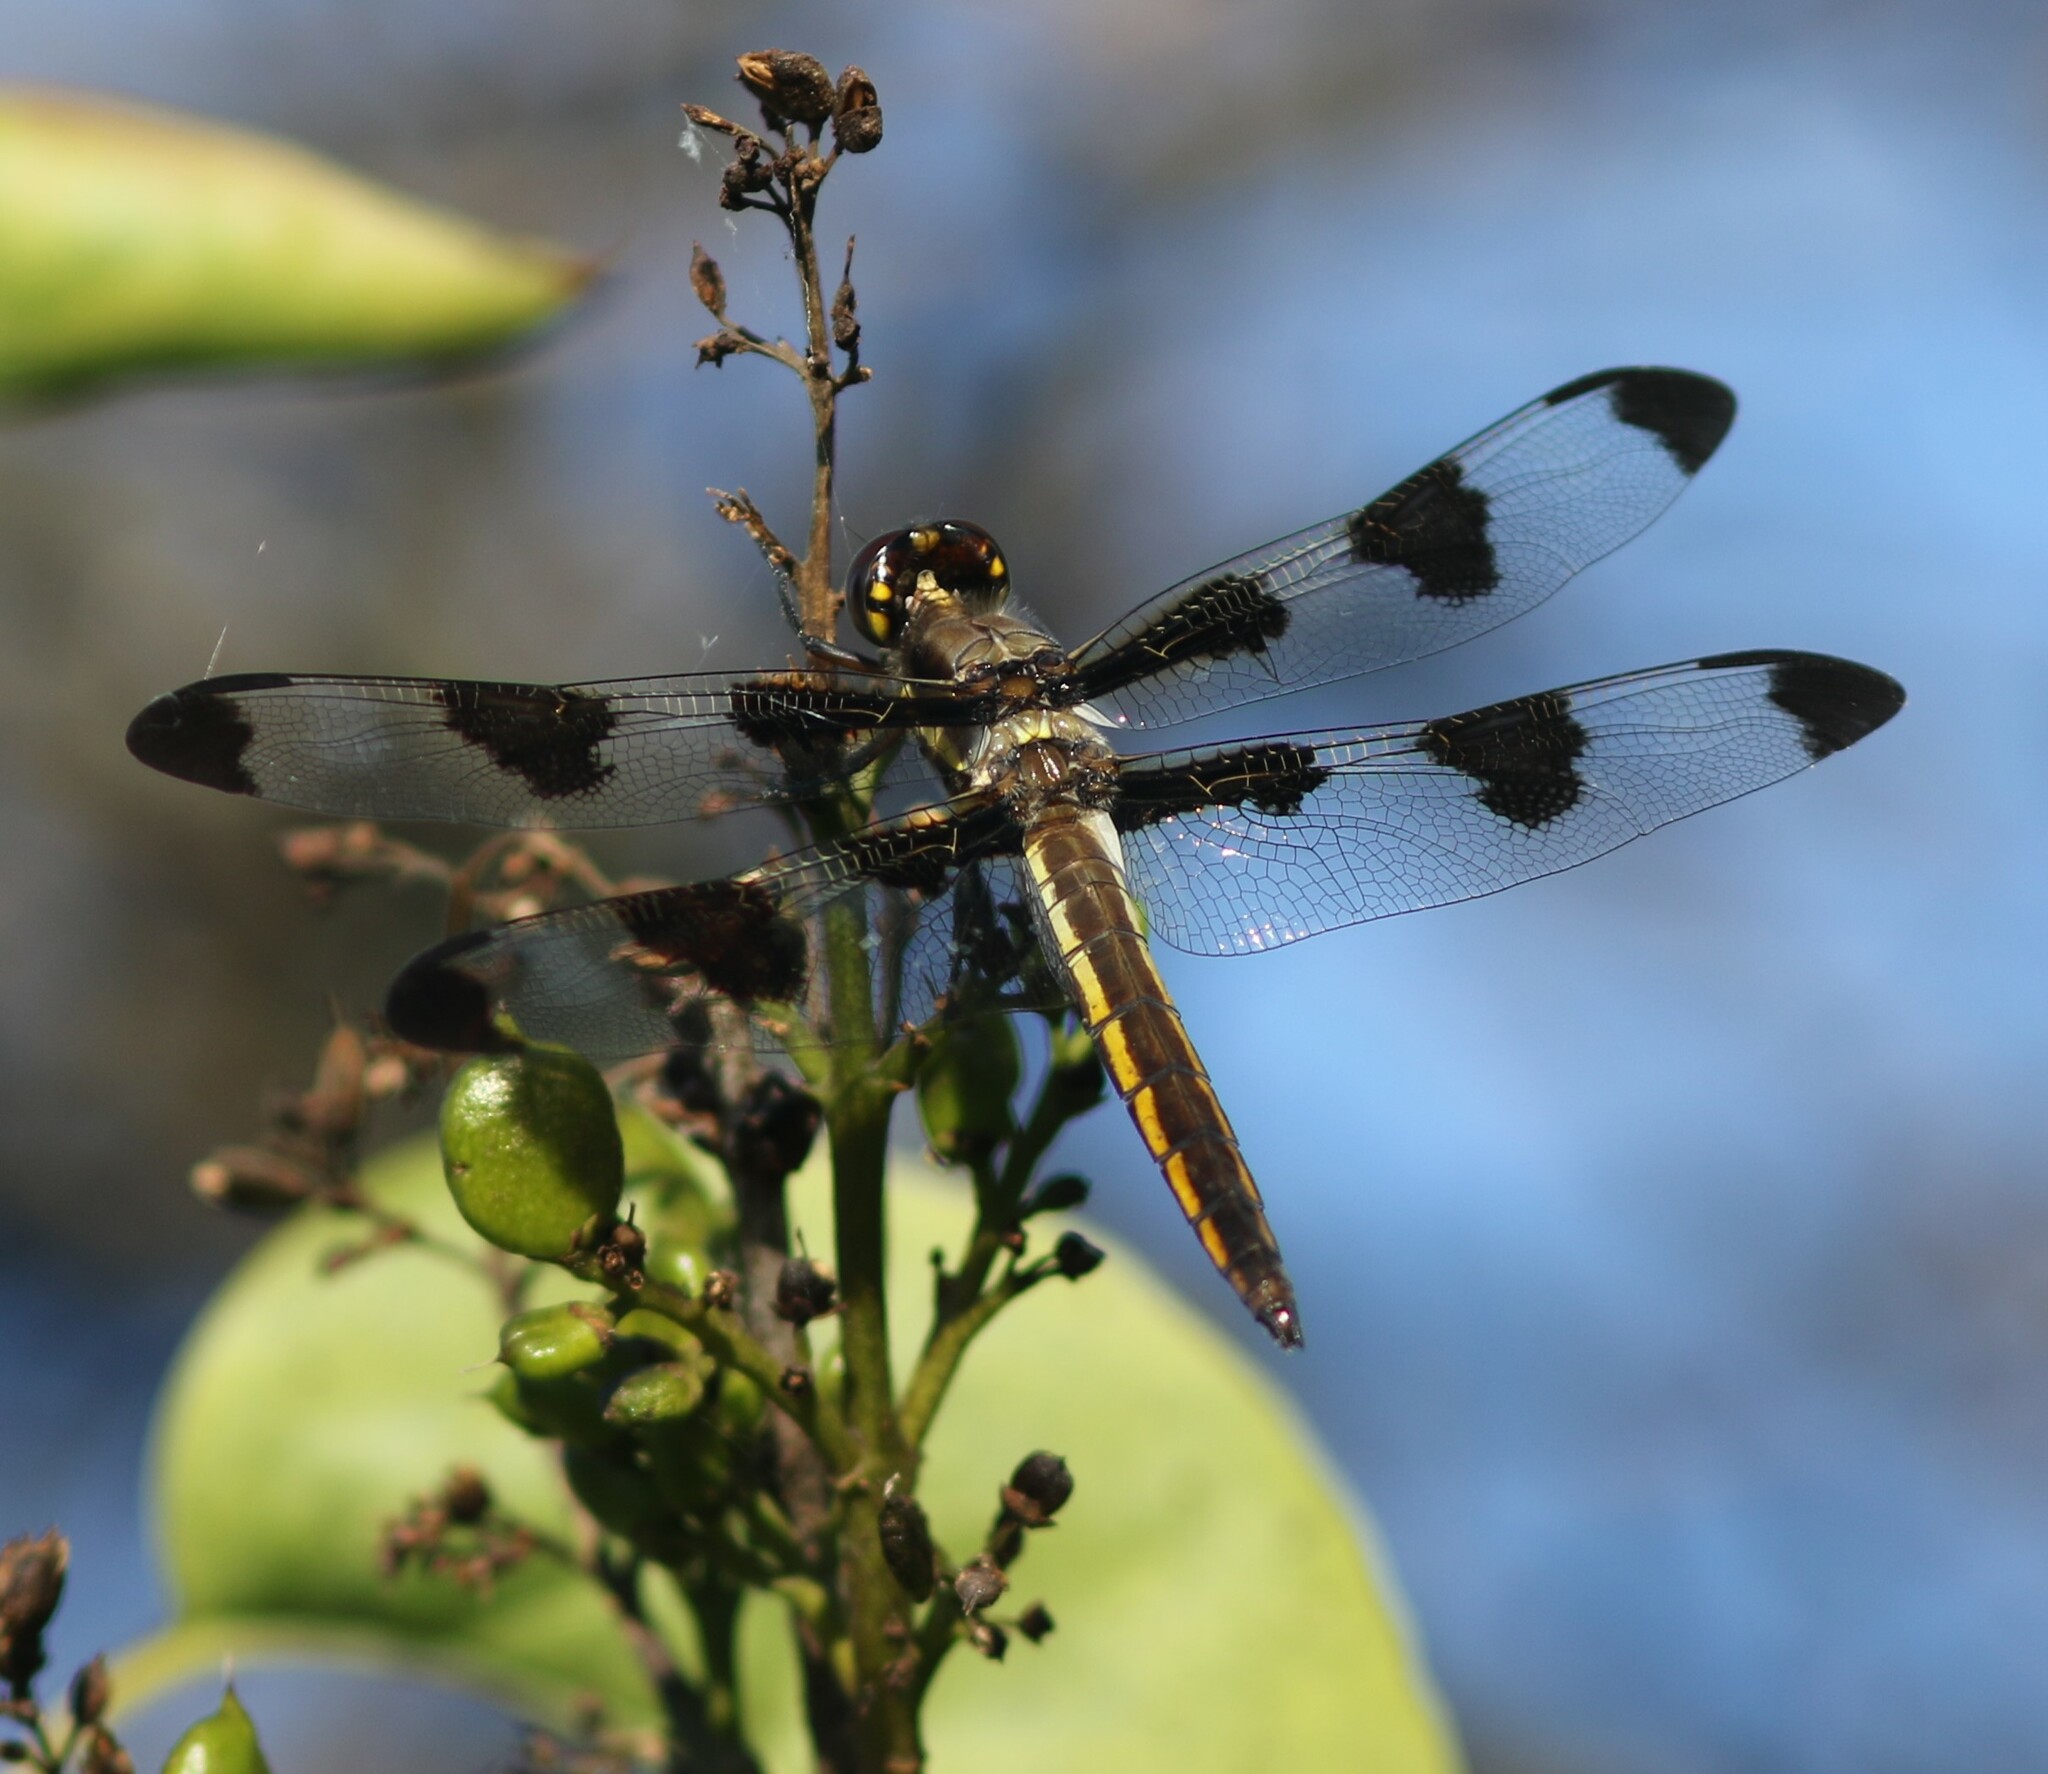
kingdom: Animalia
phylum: Arthropoda
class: Insecta
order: Odonata
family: Libellulidae
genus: Libellula
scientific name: Libellula pulchella
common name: Twelve-spotted skimmer
